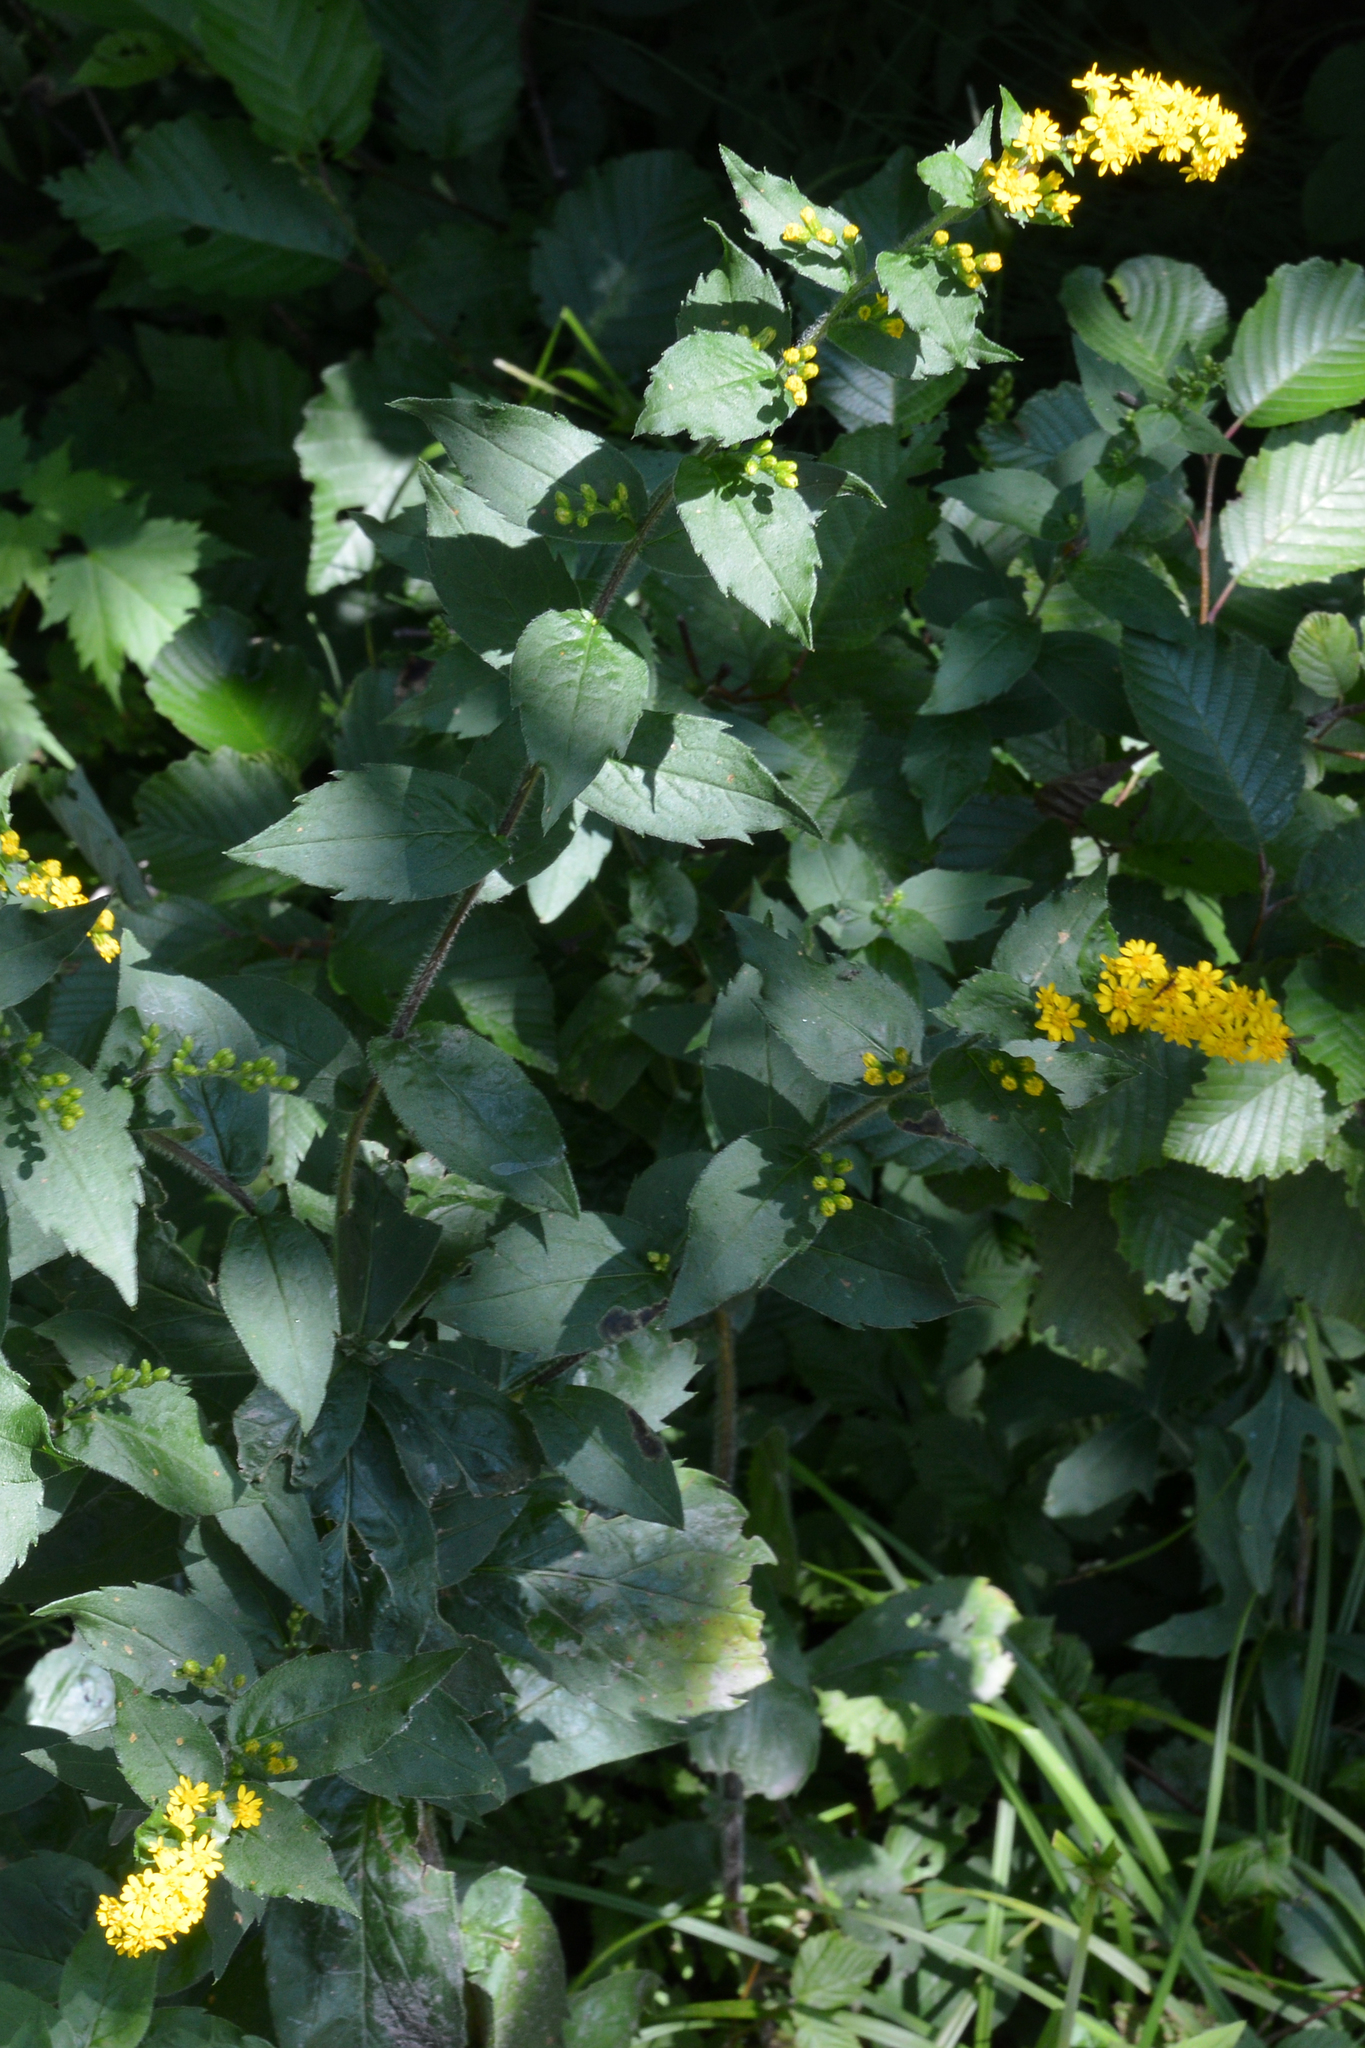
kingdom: Plantae
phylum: Tracheophyta
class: Magnoliopsida
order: Asterales
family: Asteraceae
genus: Solidago
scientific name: Solidago rugosa
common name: Rough-stemmed goldenrod
